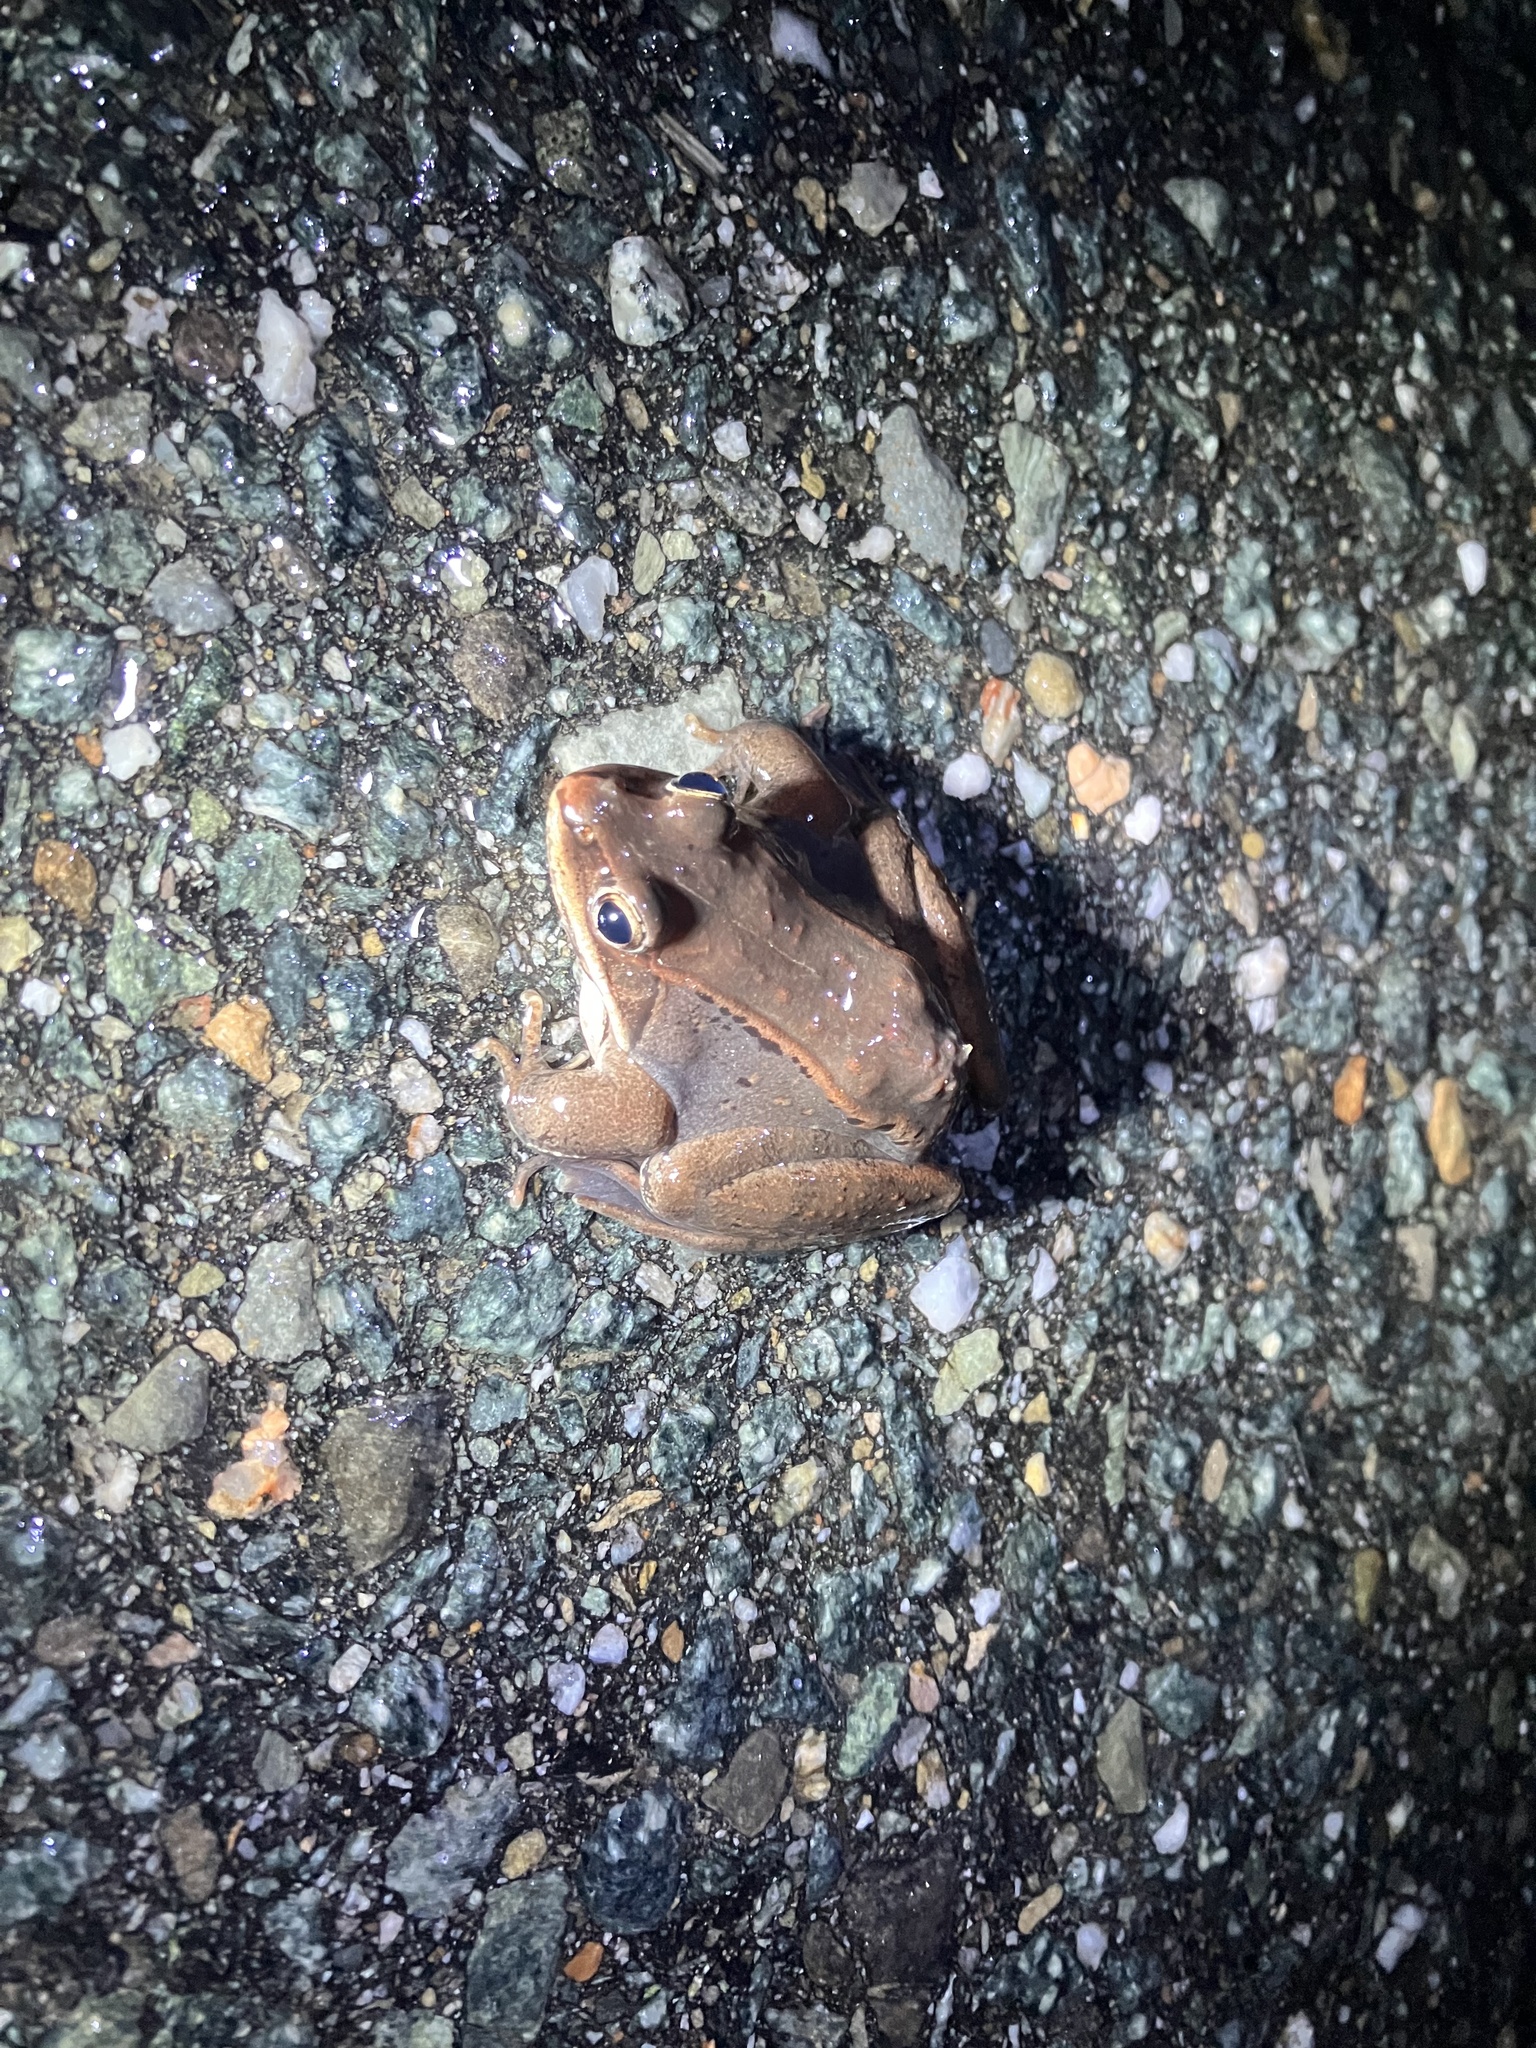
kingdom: Animalia
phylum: Chordata
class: Amphibia
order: Anura
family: Ranidae
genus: Lithobates
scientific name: Lithobates sylvaticus
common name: Wood frog
